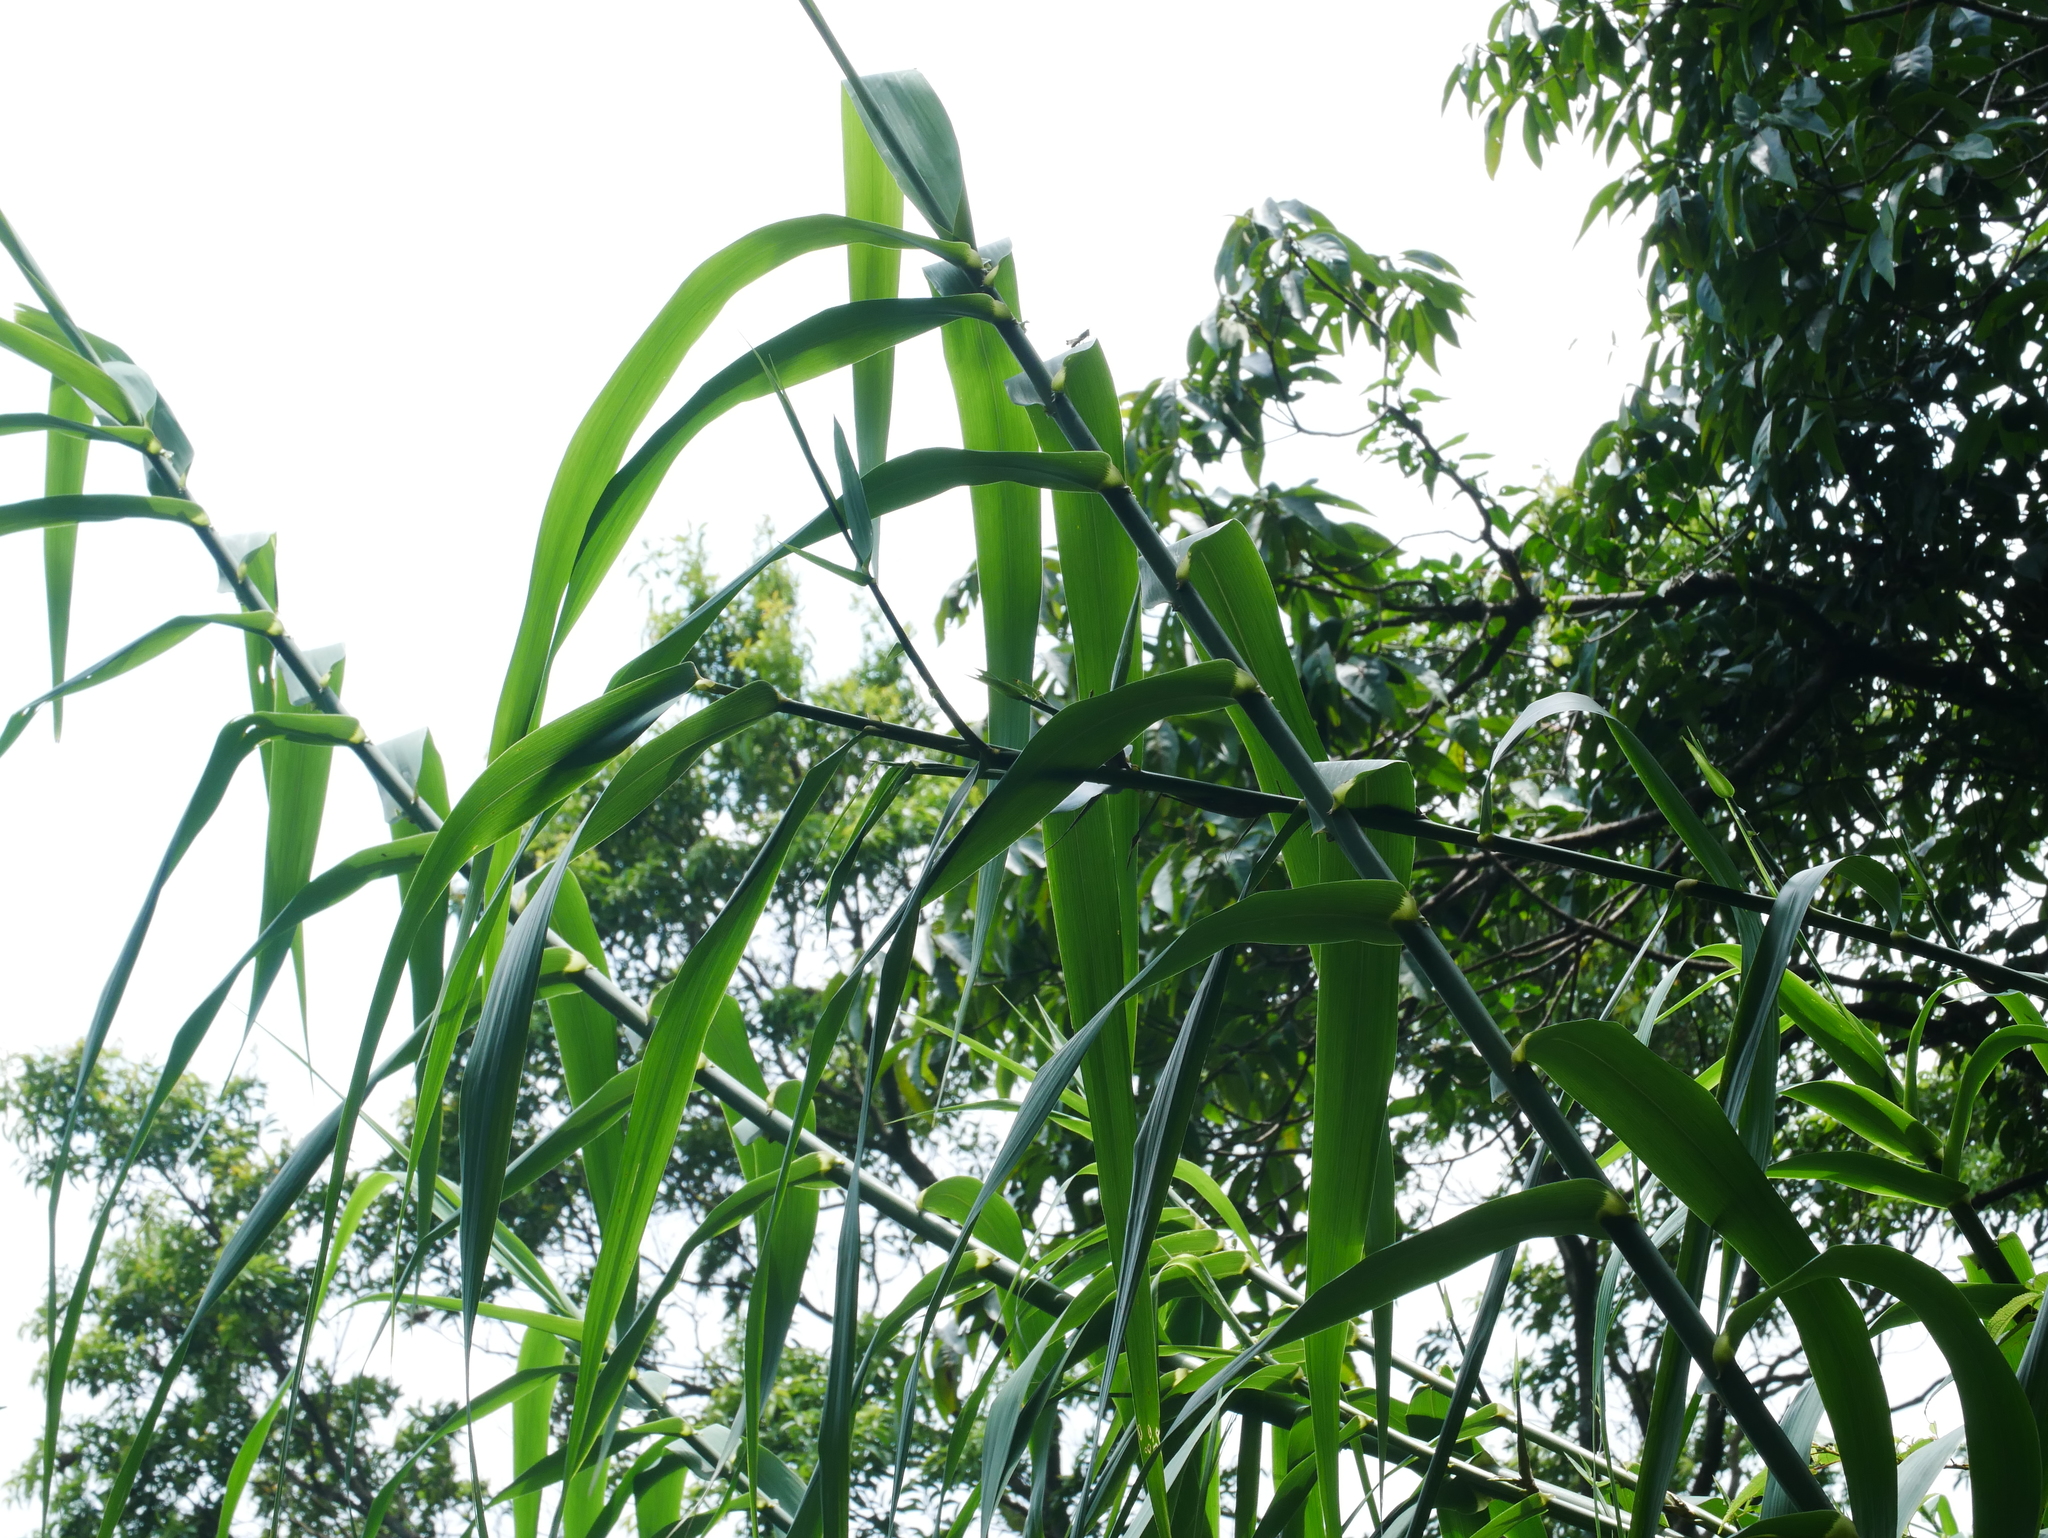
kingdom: Plantae
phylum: Tracheophyta
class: Liliopsida
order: Poales
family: Poaceae
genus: Arundo
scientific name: Arundo donax
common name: Giant reed
